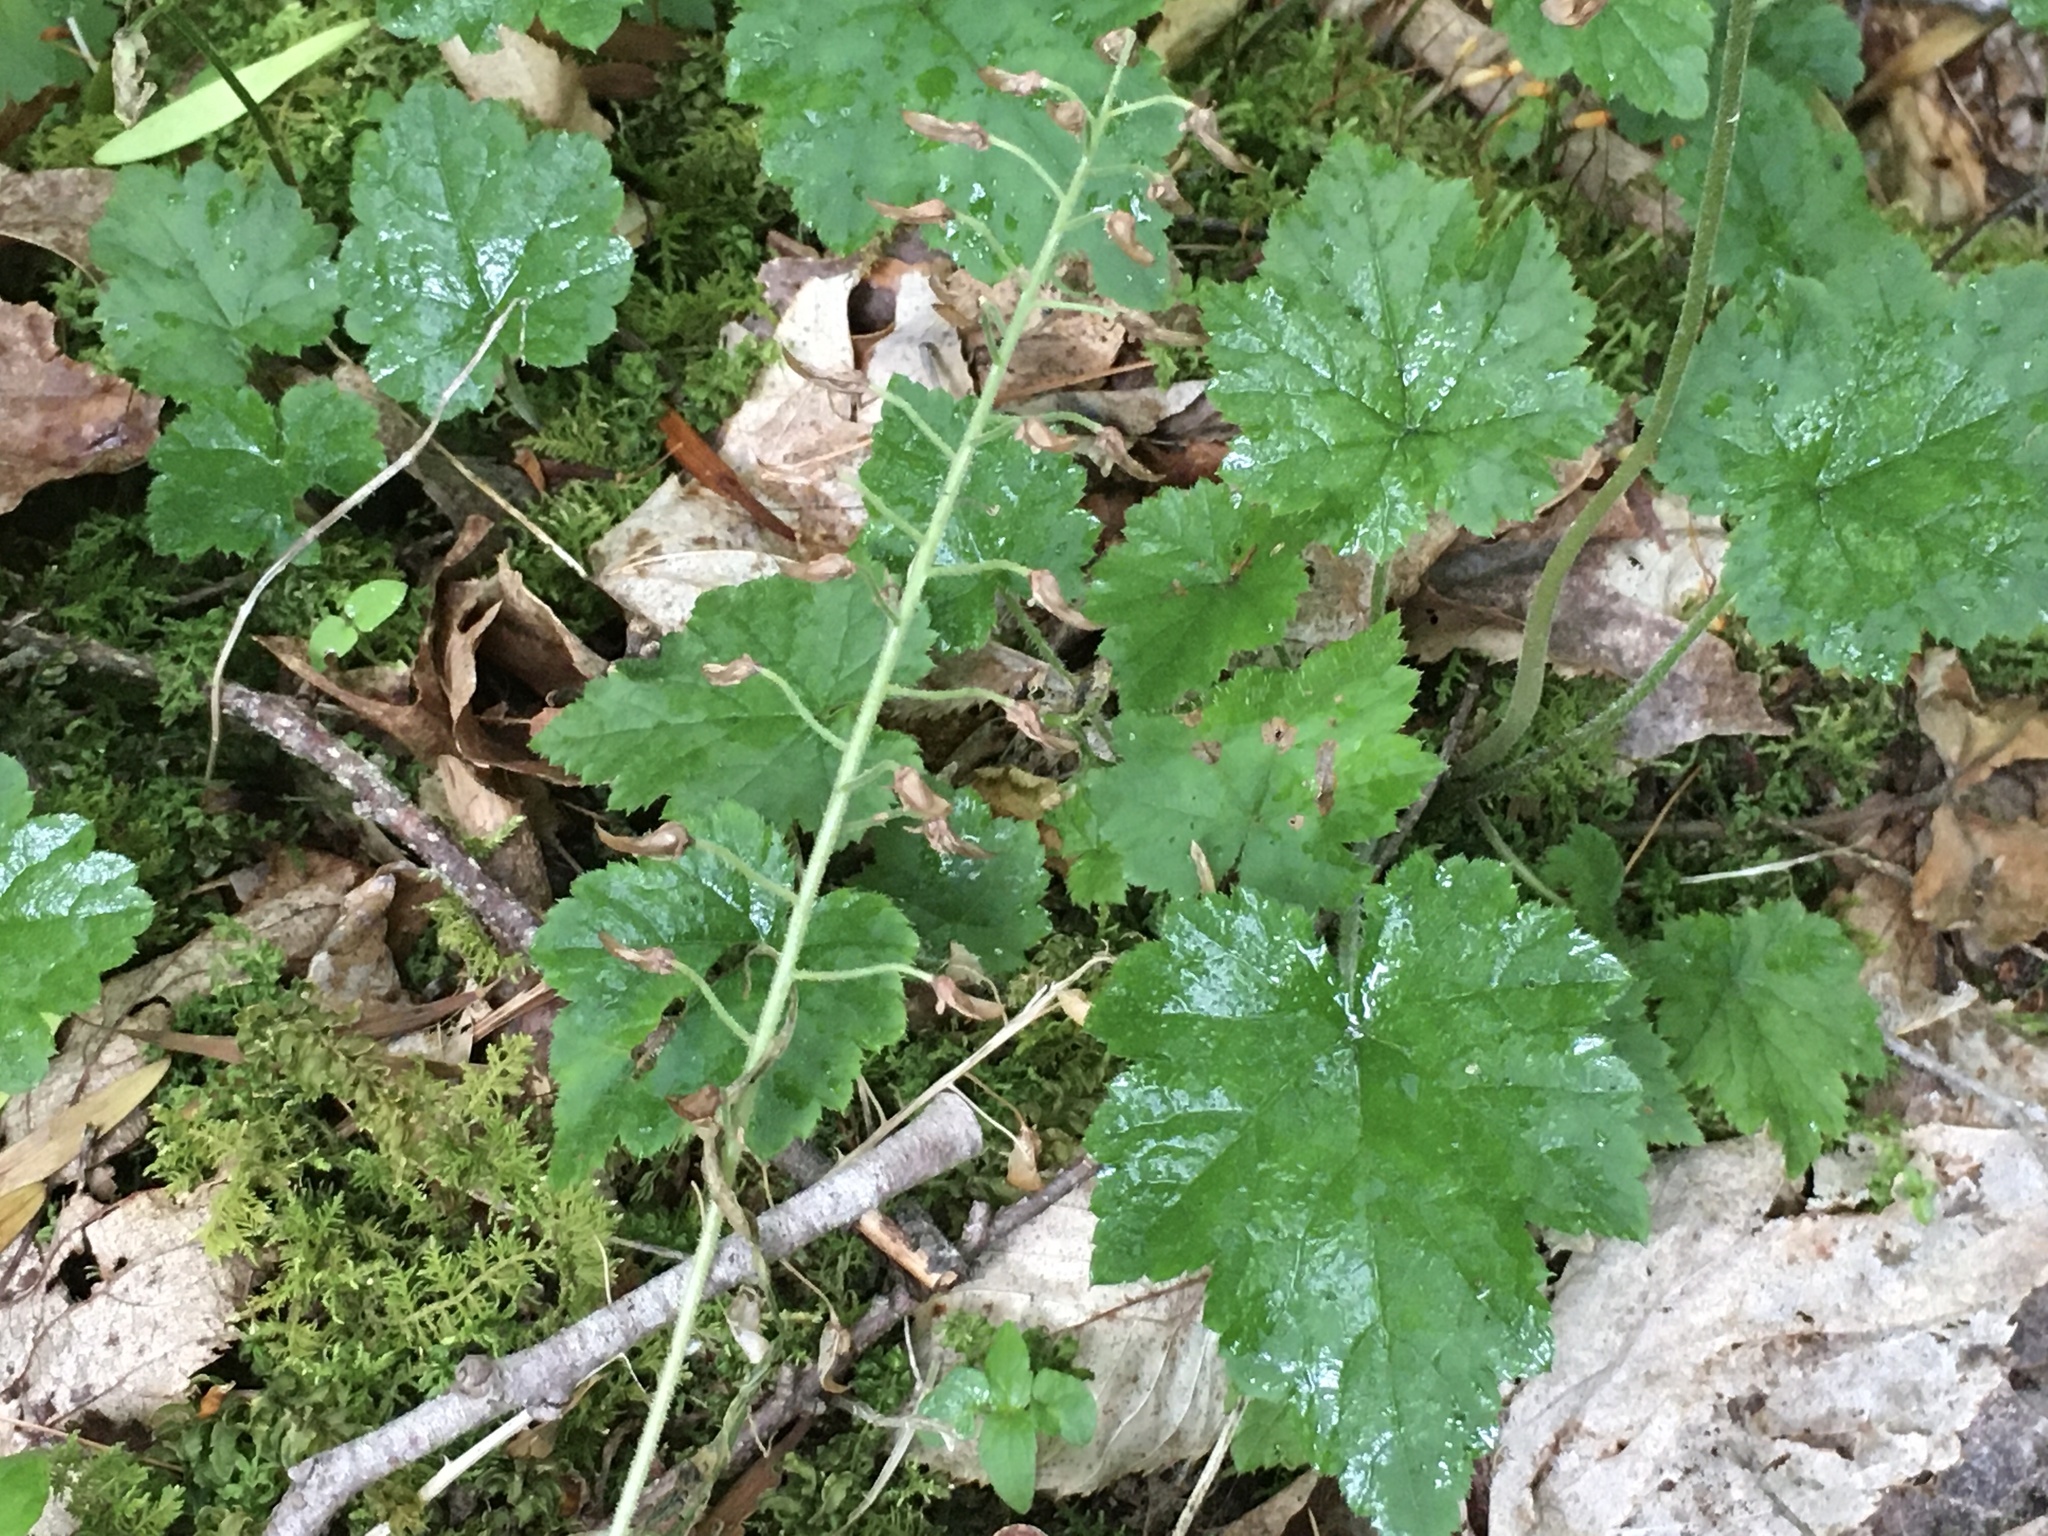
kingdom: Plantae
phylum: Tracheophyta
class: Magnoliopsida
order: Saxifragales
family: Saxifragaceae
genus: Tiarella
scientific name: Tiarella stolonifera
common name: Stoloniferous foamflower
